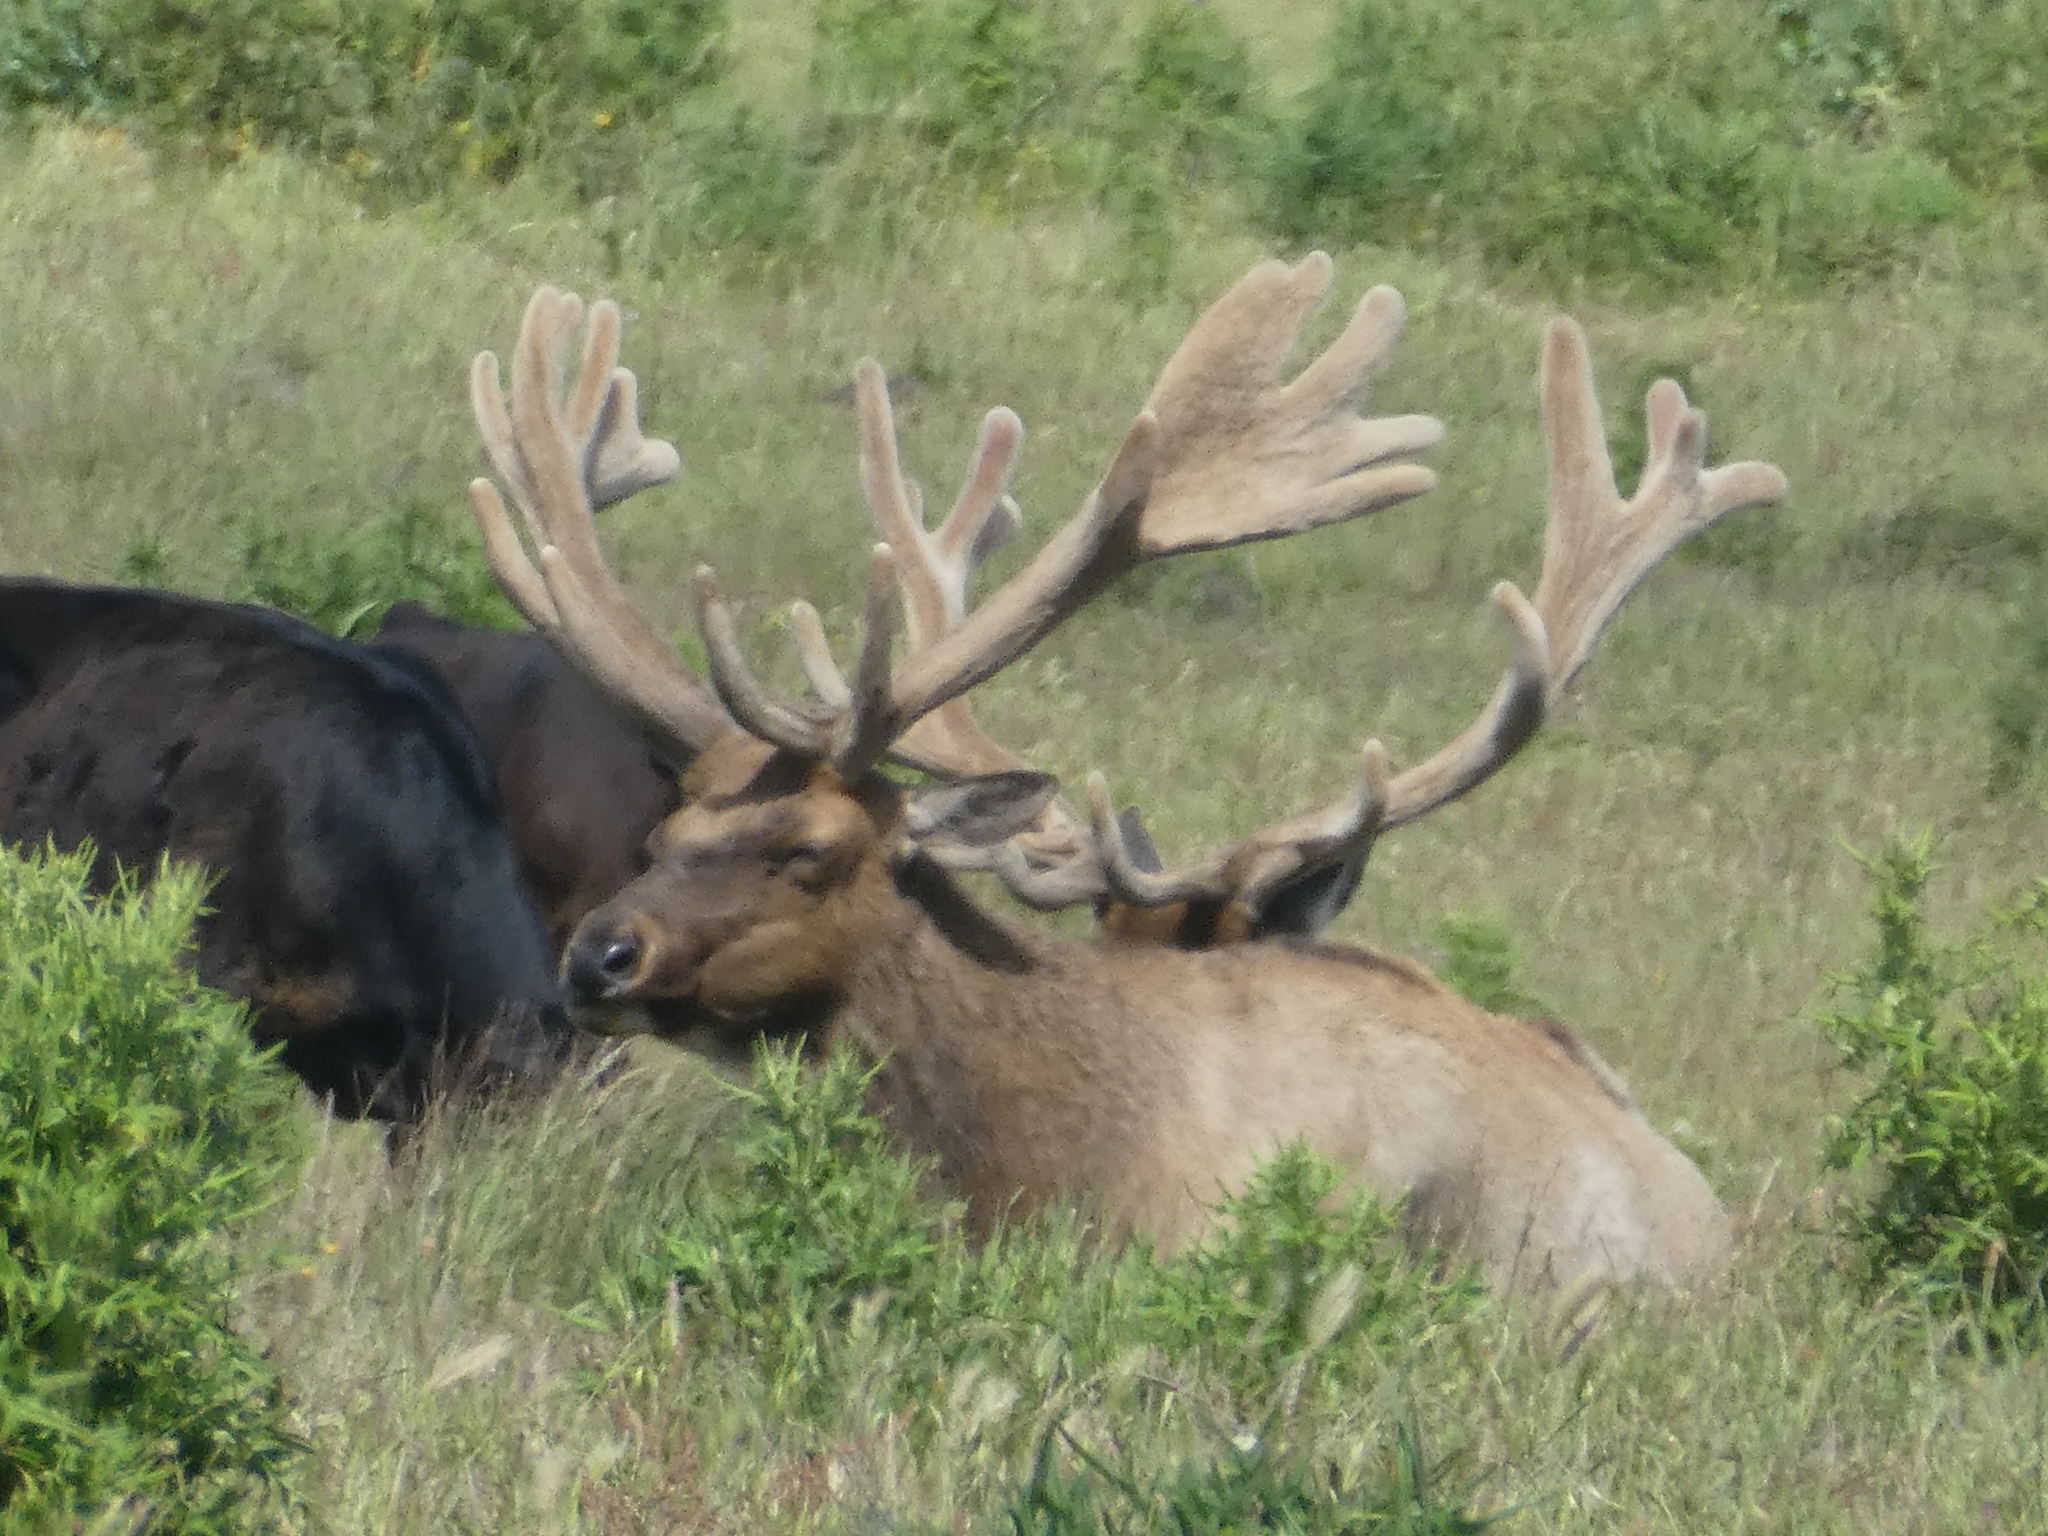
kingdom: Animalia
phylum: Chordata
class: Mammalia
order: Artiodactyla
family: Cervidae
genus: Cervus
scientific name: Cervus elaphus
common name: Red deer
